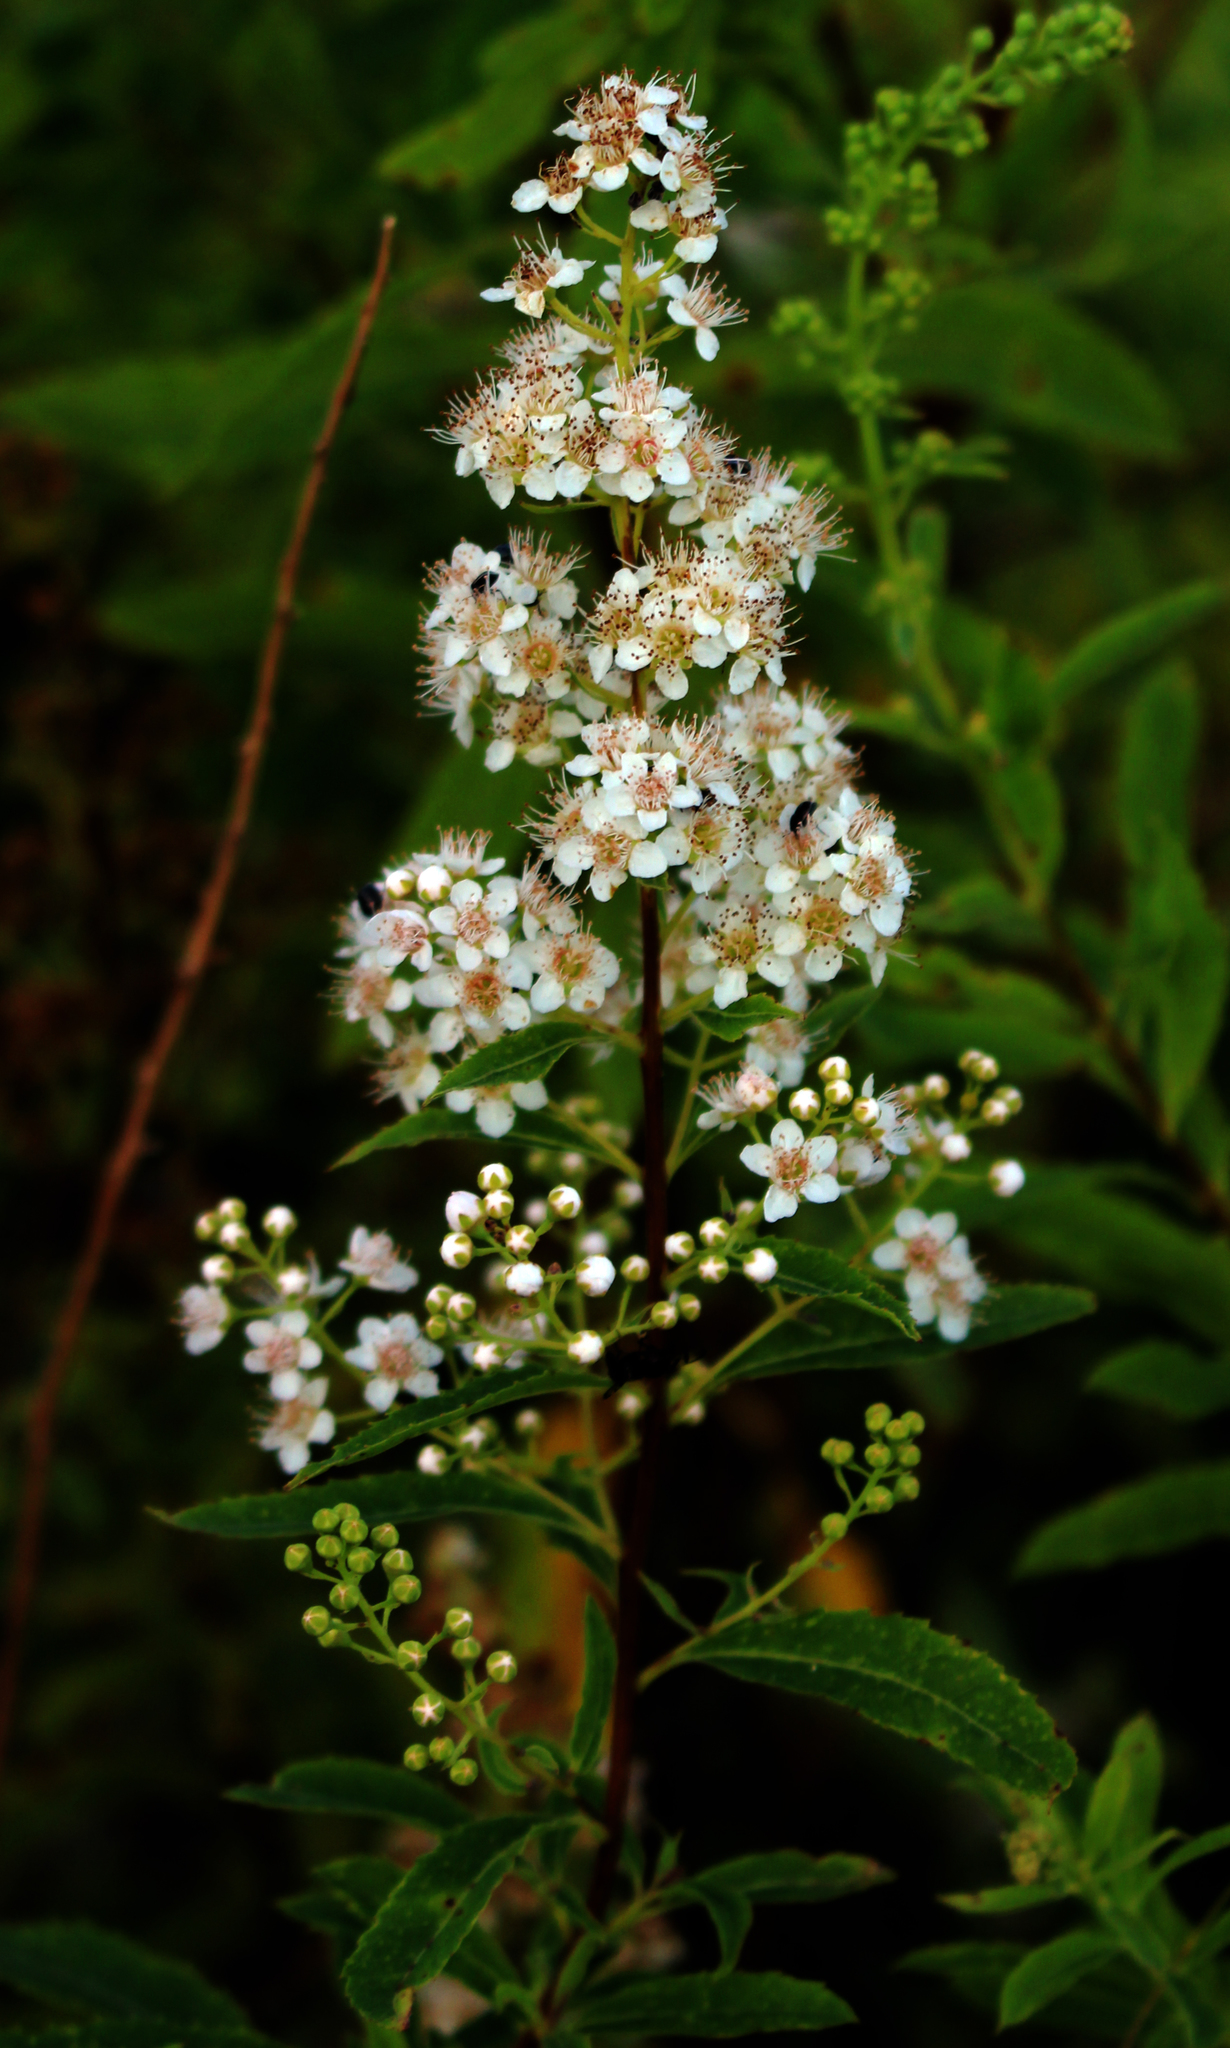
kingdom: Plantae
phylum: Tracheophyta
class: Magnoliopsida
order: Rosales
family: Rosaceae
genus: Spiraea
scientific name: Spiraea alba
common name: Pale bridewort
